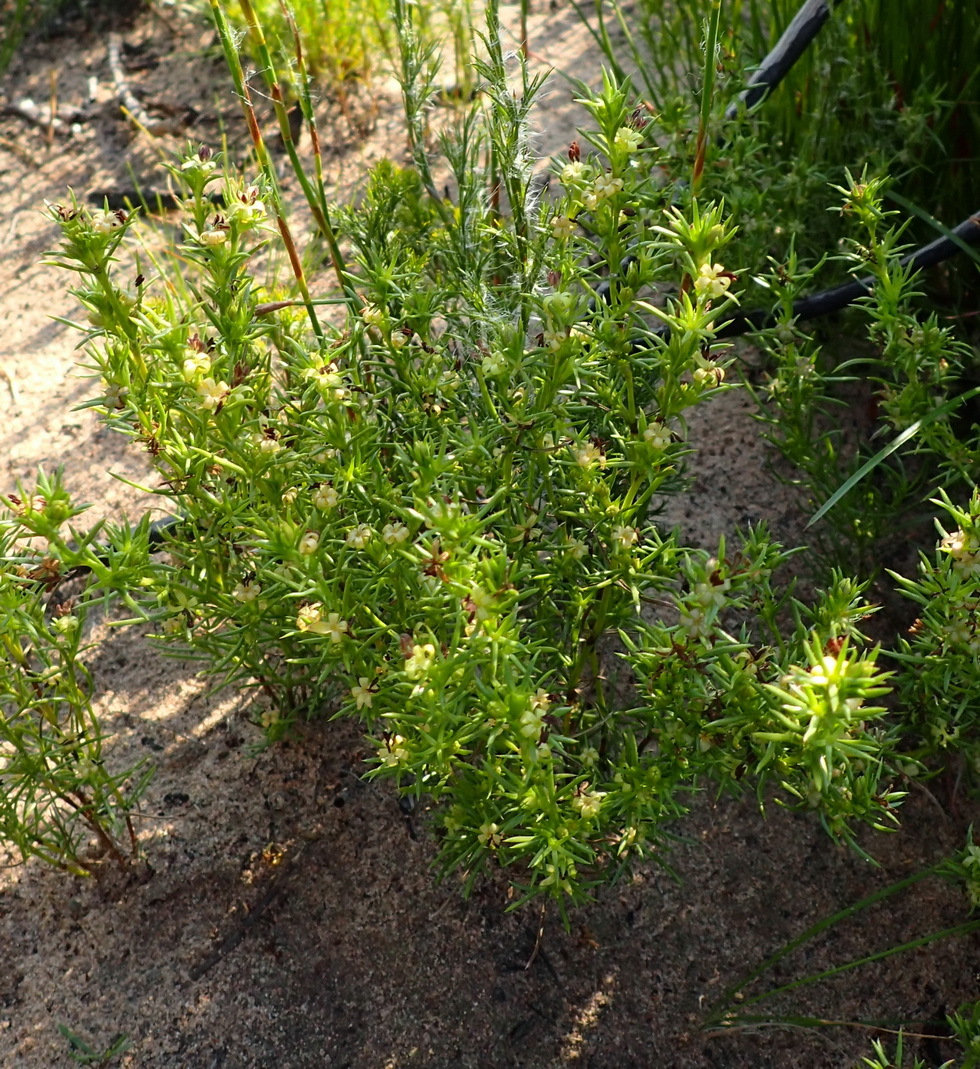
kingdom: Plantae
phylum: Tracheophyta
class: Magnoliopsida
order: Gentianales
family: Rubiaceae
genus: Carpacoce
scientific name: Carpacoce vaginellata
